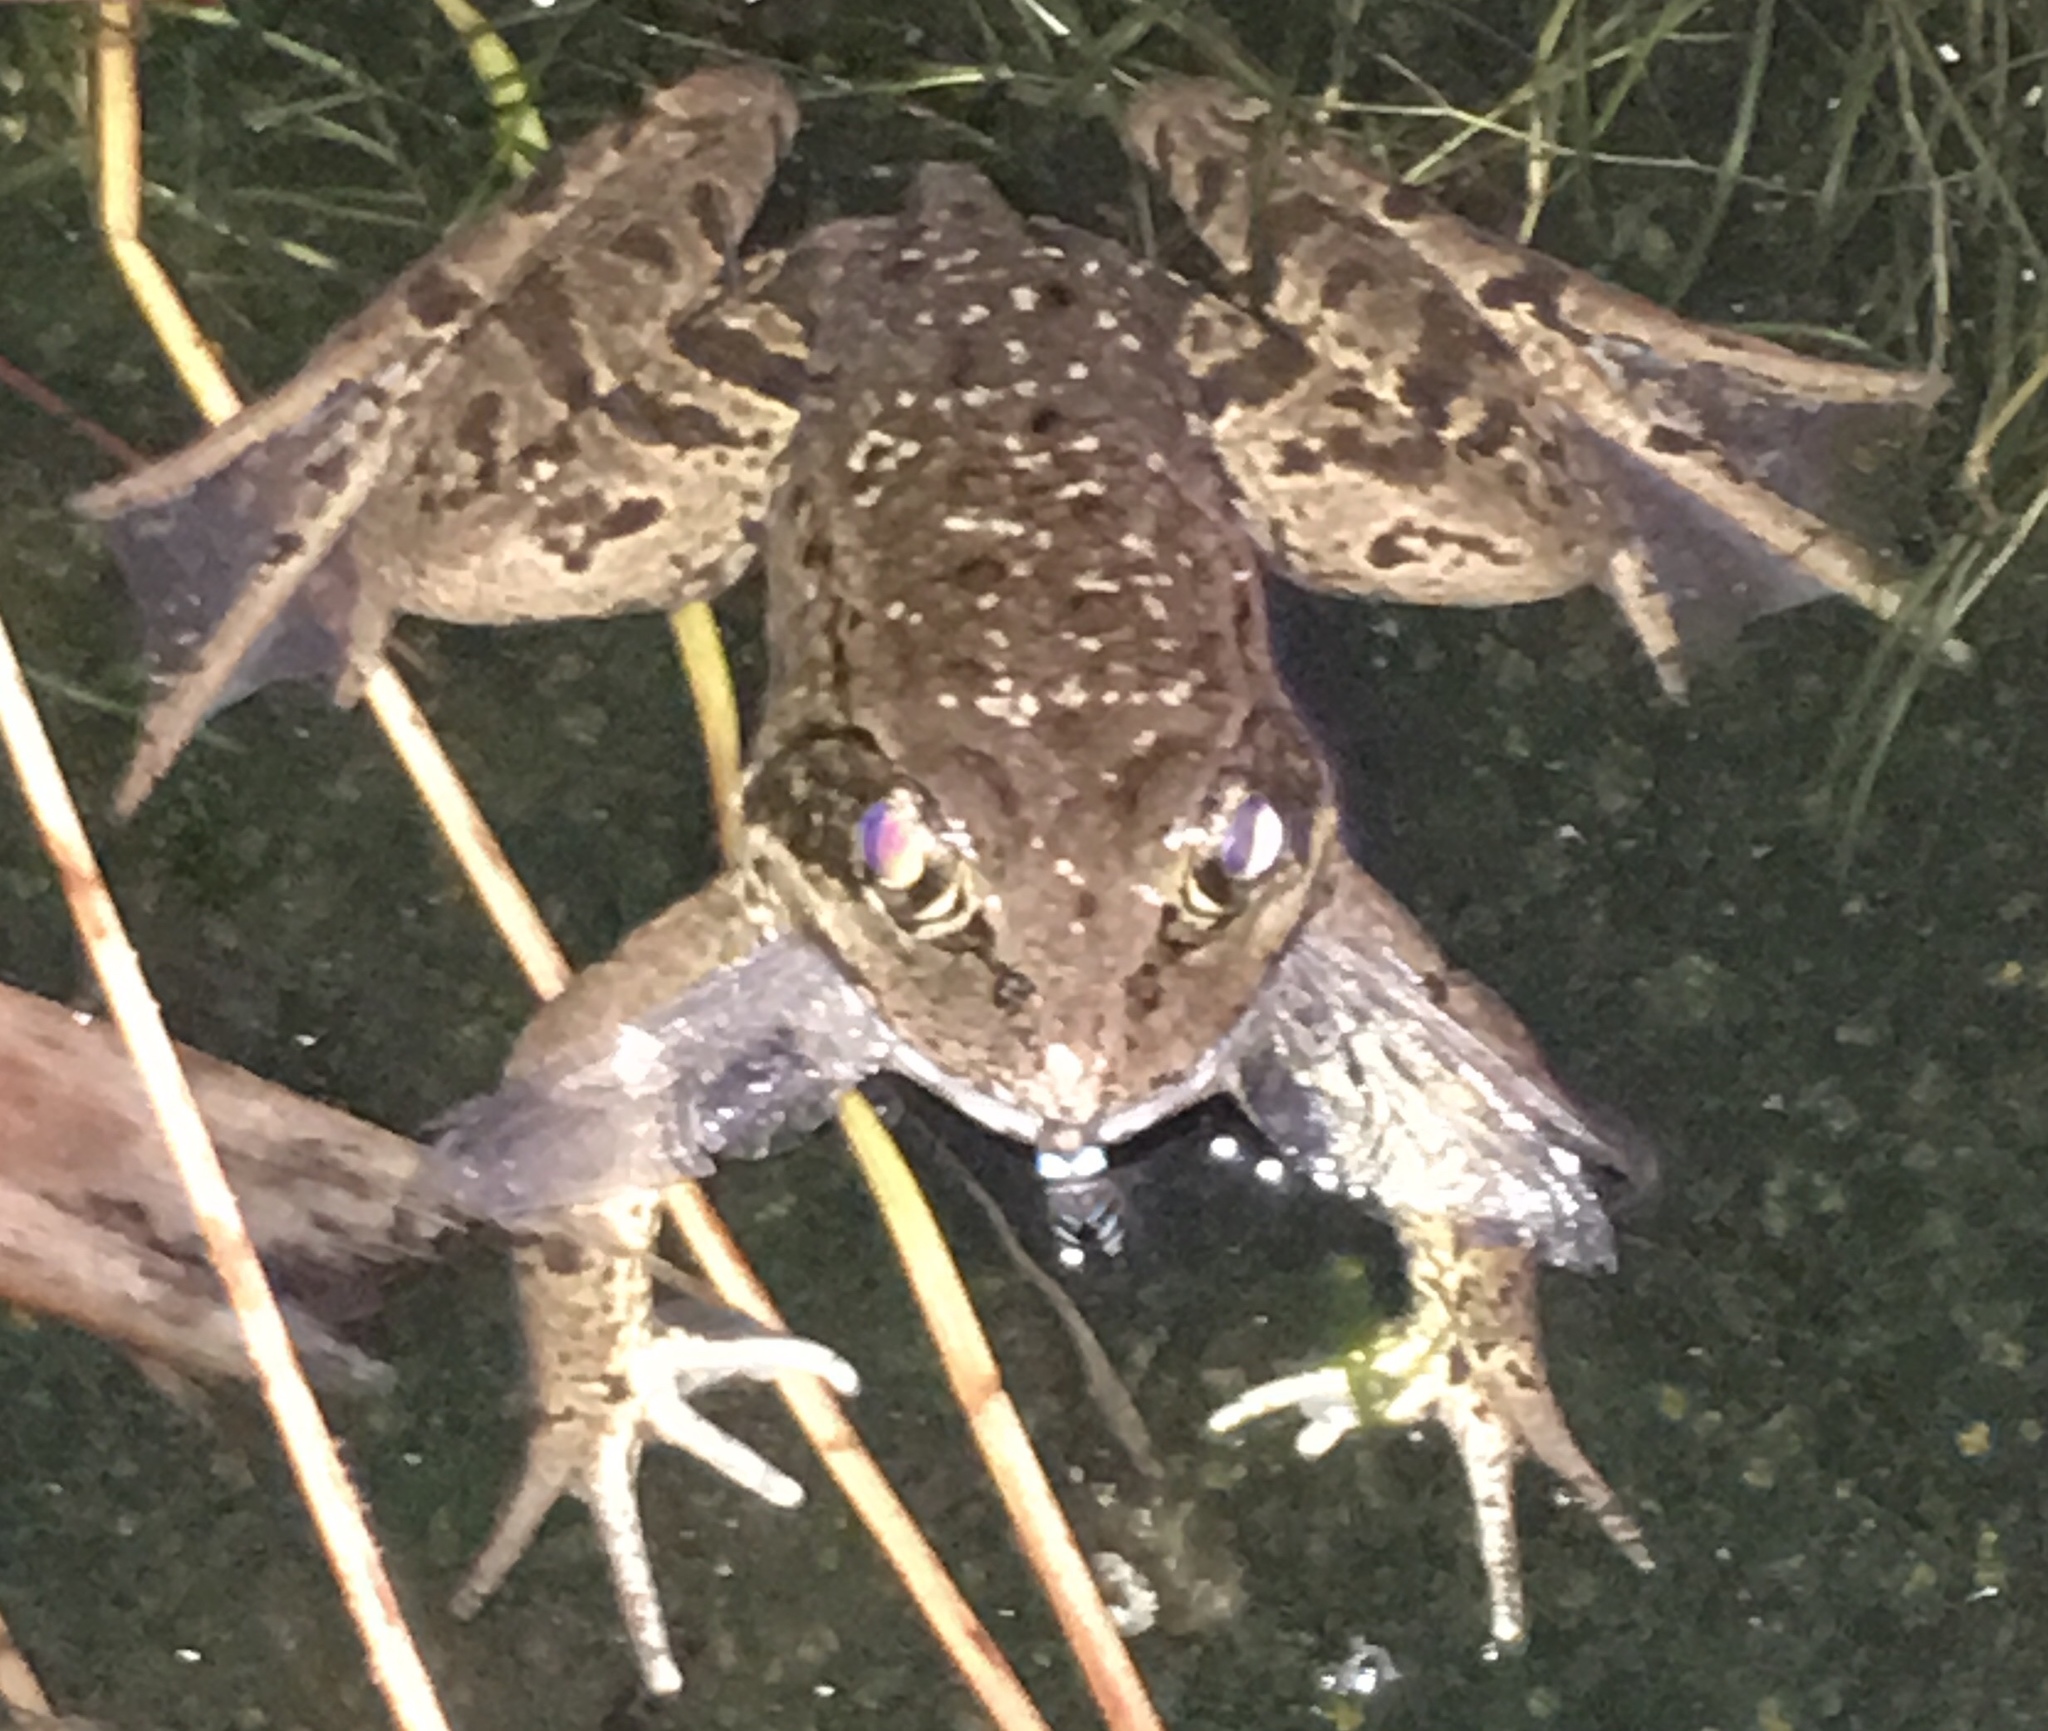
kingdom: Animalia
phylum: Chordata
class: Amphibia
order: Anura
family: Ranidae
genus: Rana
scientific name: Rana draytonii
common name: California red-legged frog
